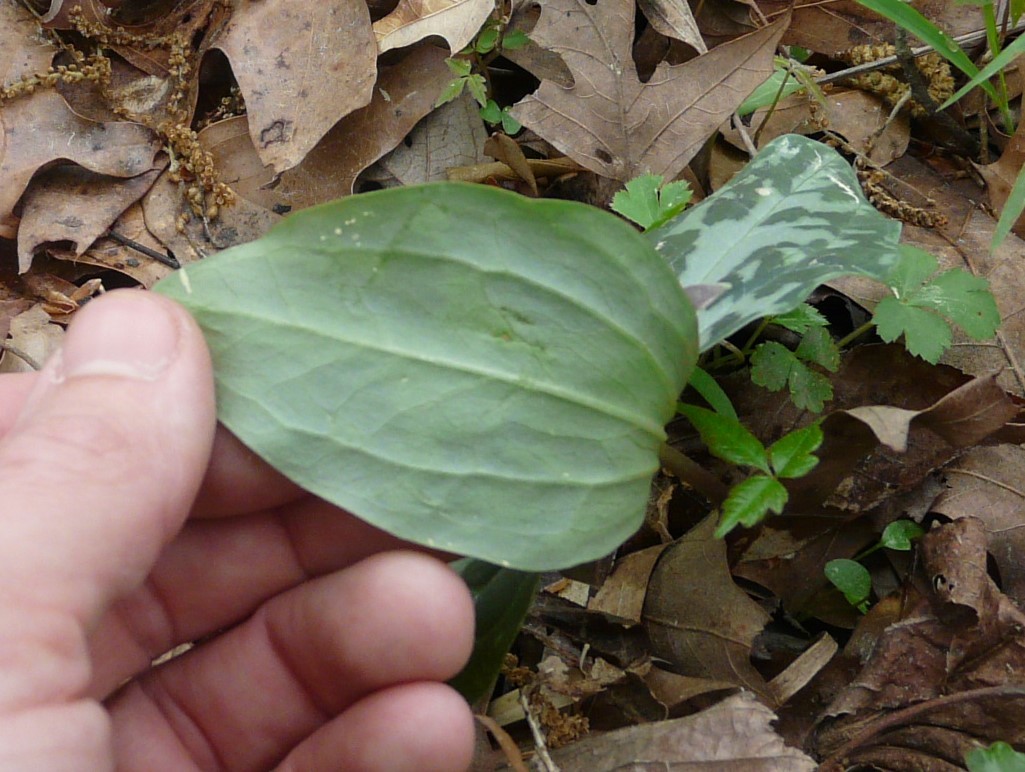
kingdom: Plantae
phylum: Tracheophyta
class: Liliopsida
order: Liliales
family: Melanthiaceae
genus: Trillium
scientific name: Trillium foetidissimum
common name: Mississippi river trillium
